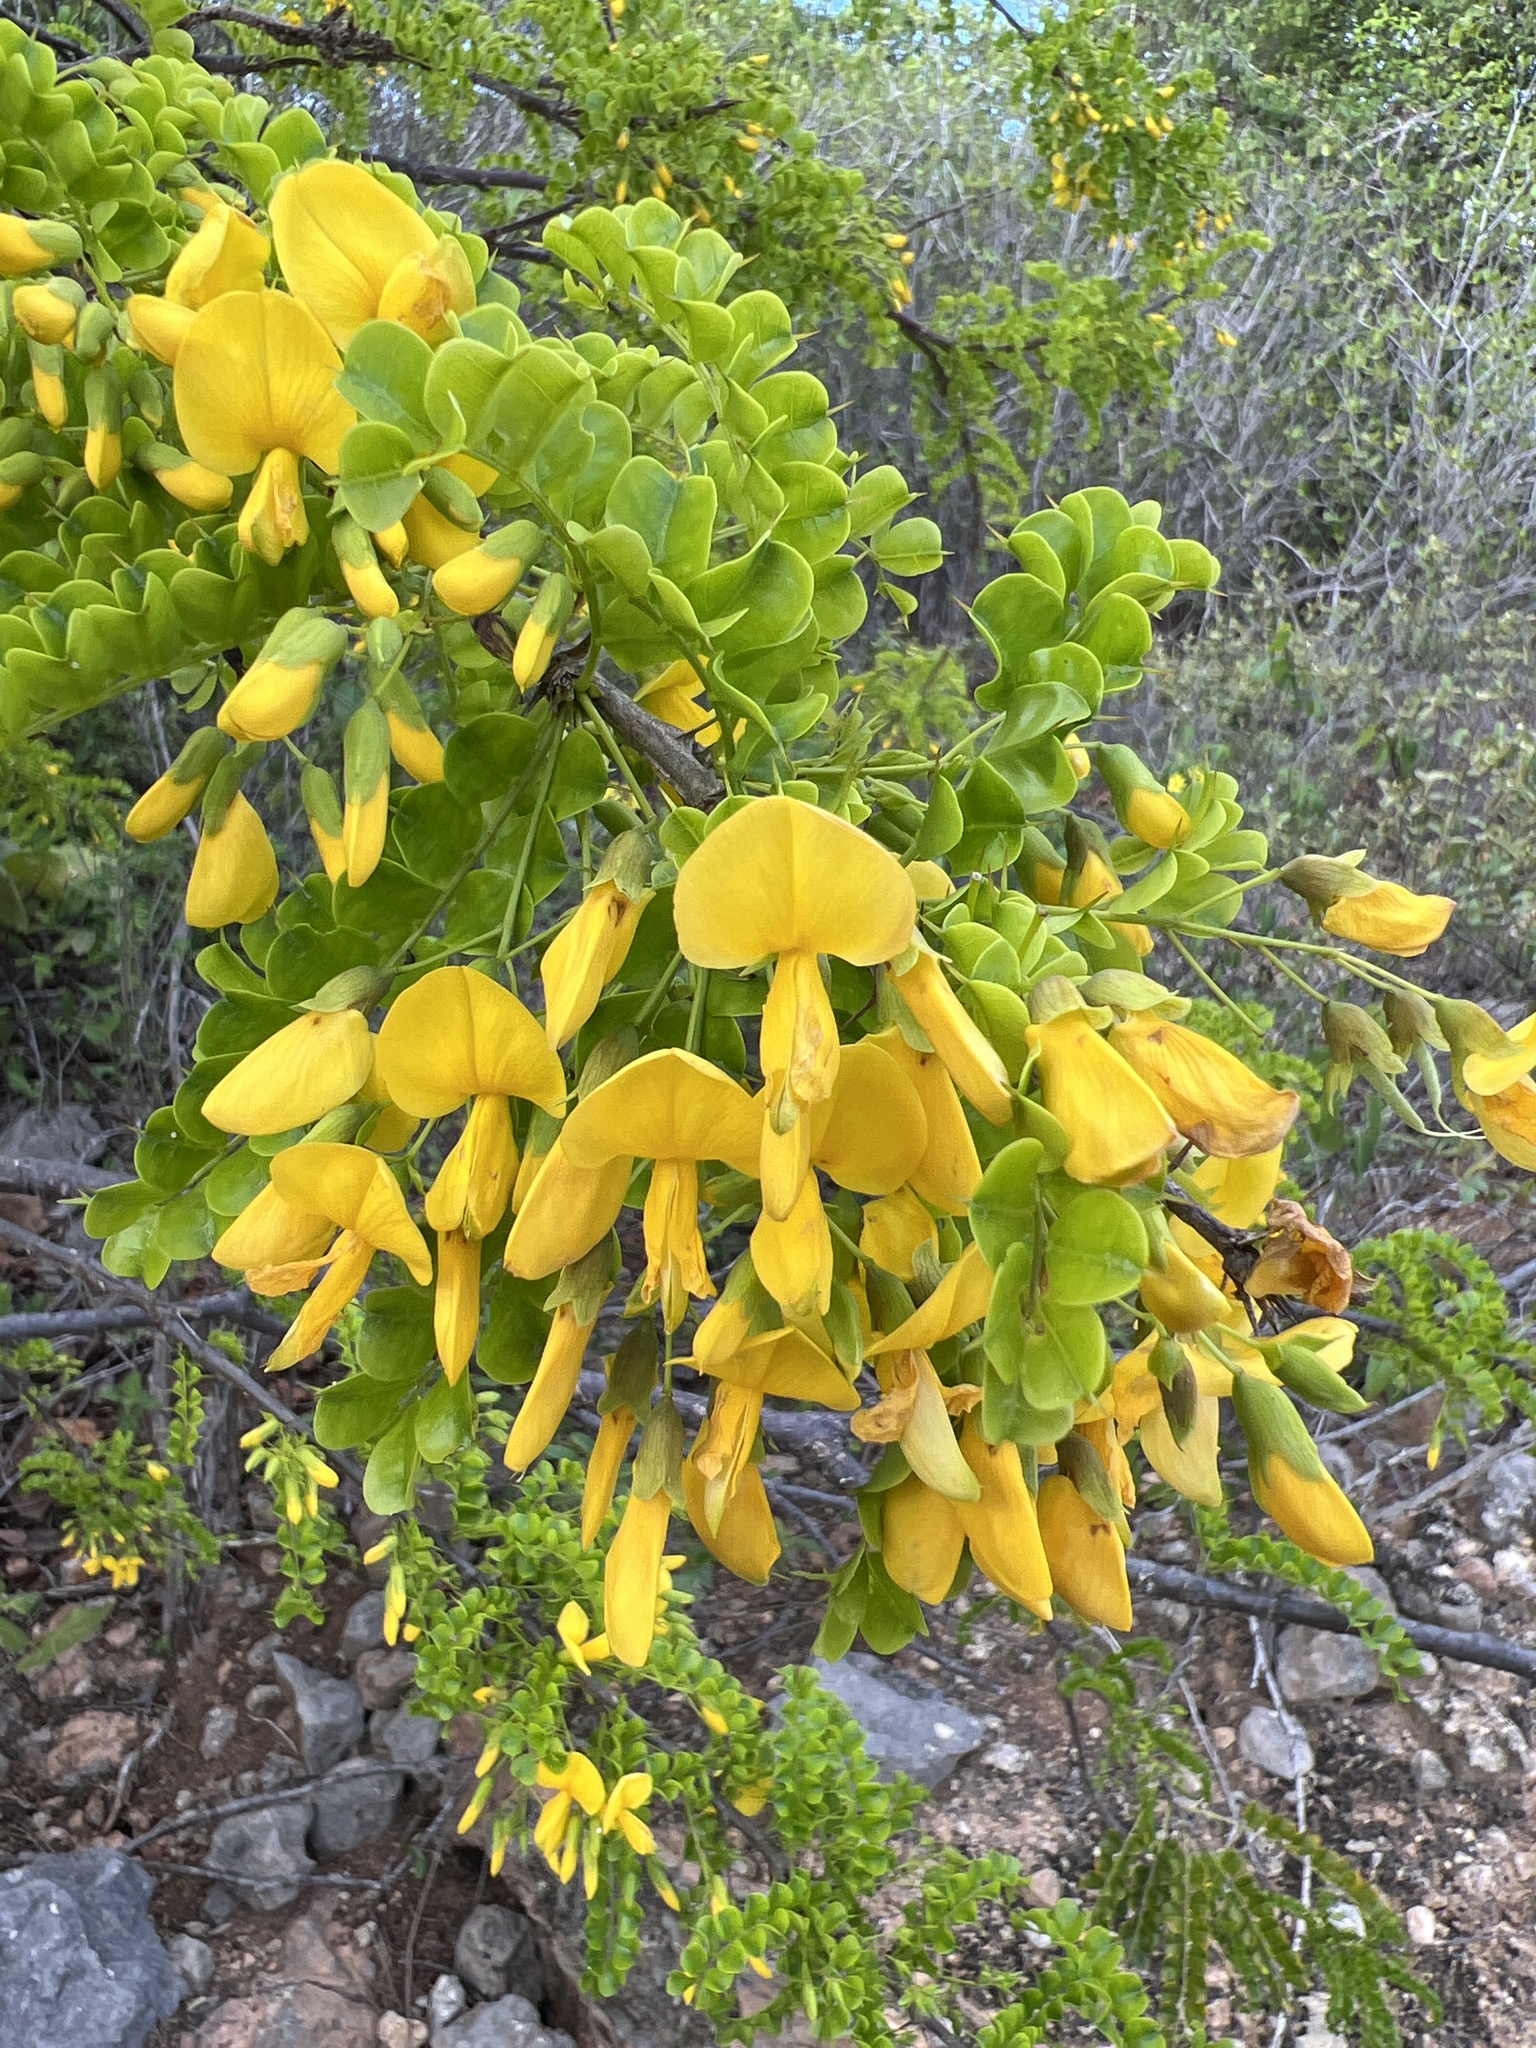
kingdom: Plantae
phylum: Tracheophyta
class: Magnoliopsida
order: Fabales
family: Fabaceae
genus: Pictetia
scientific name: Pictetia aculeata
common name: Fustic
